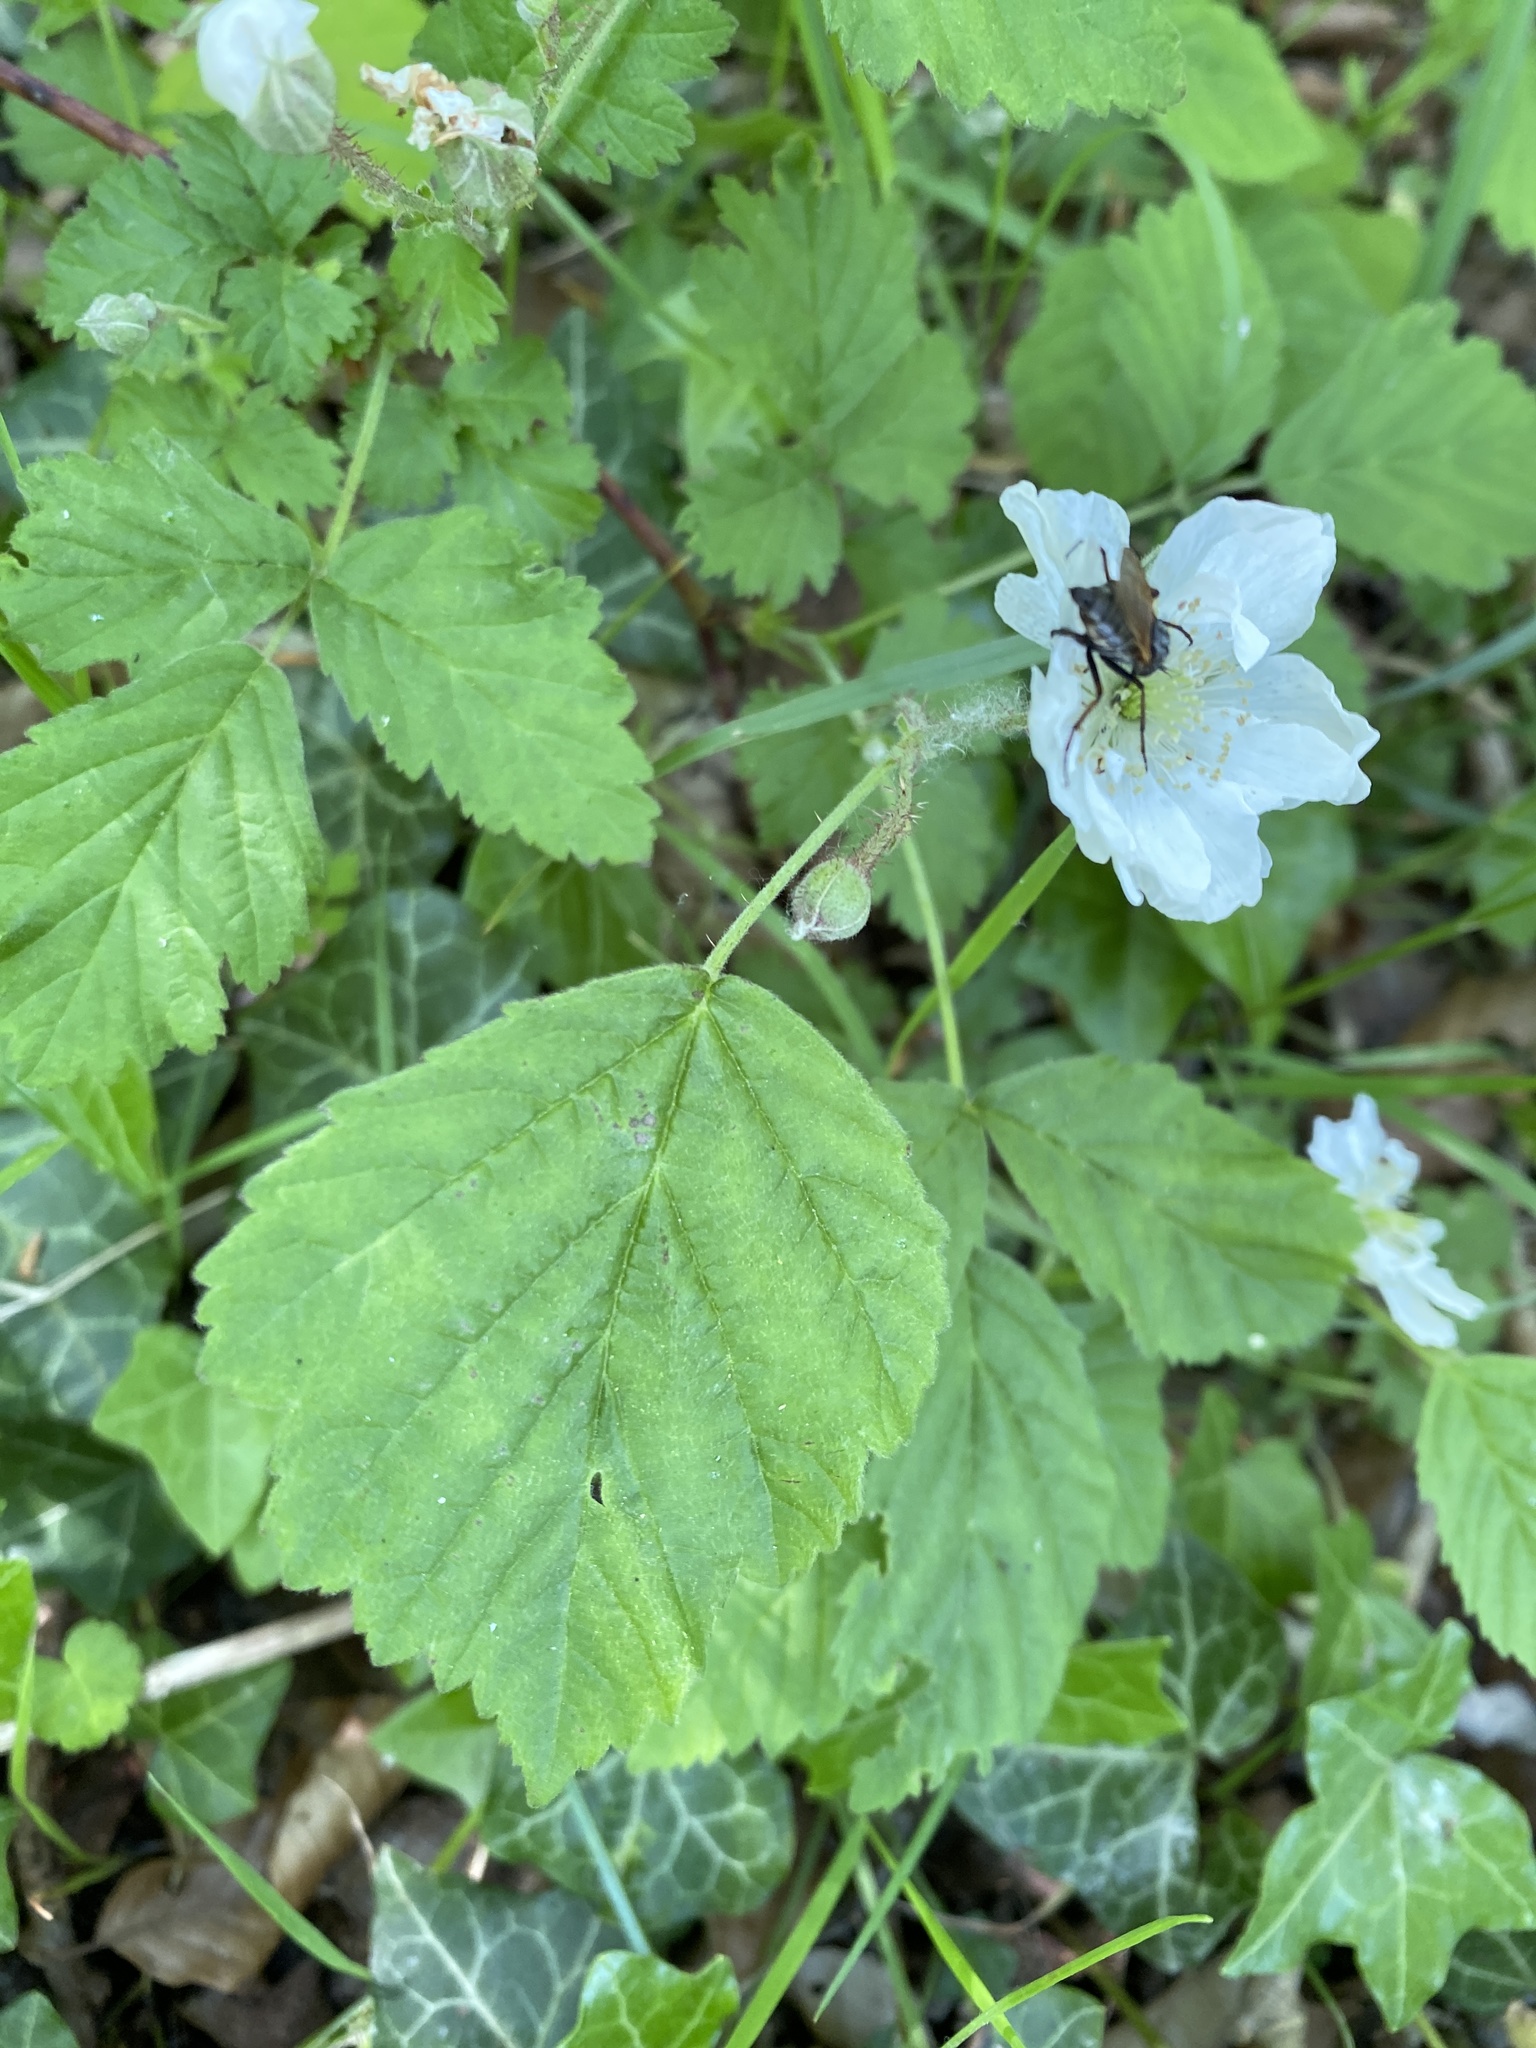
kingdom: Plantae
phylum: Tracheophyta
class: Magnoliopsida
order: Rosales
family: Rosaceae
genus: Rubus
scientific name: Rubus caesius
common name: Dewberry
